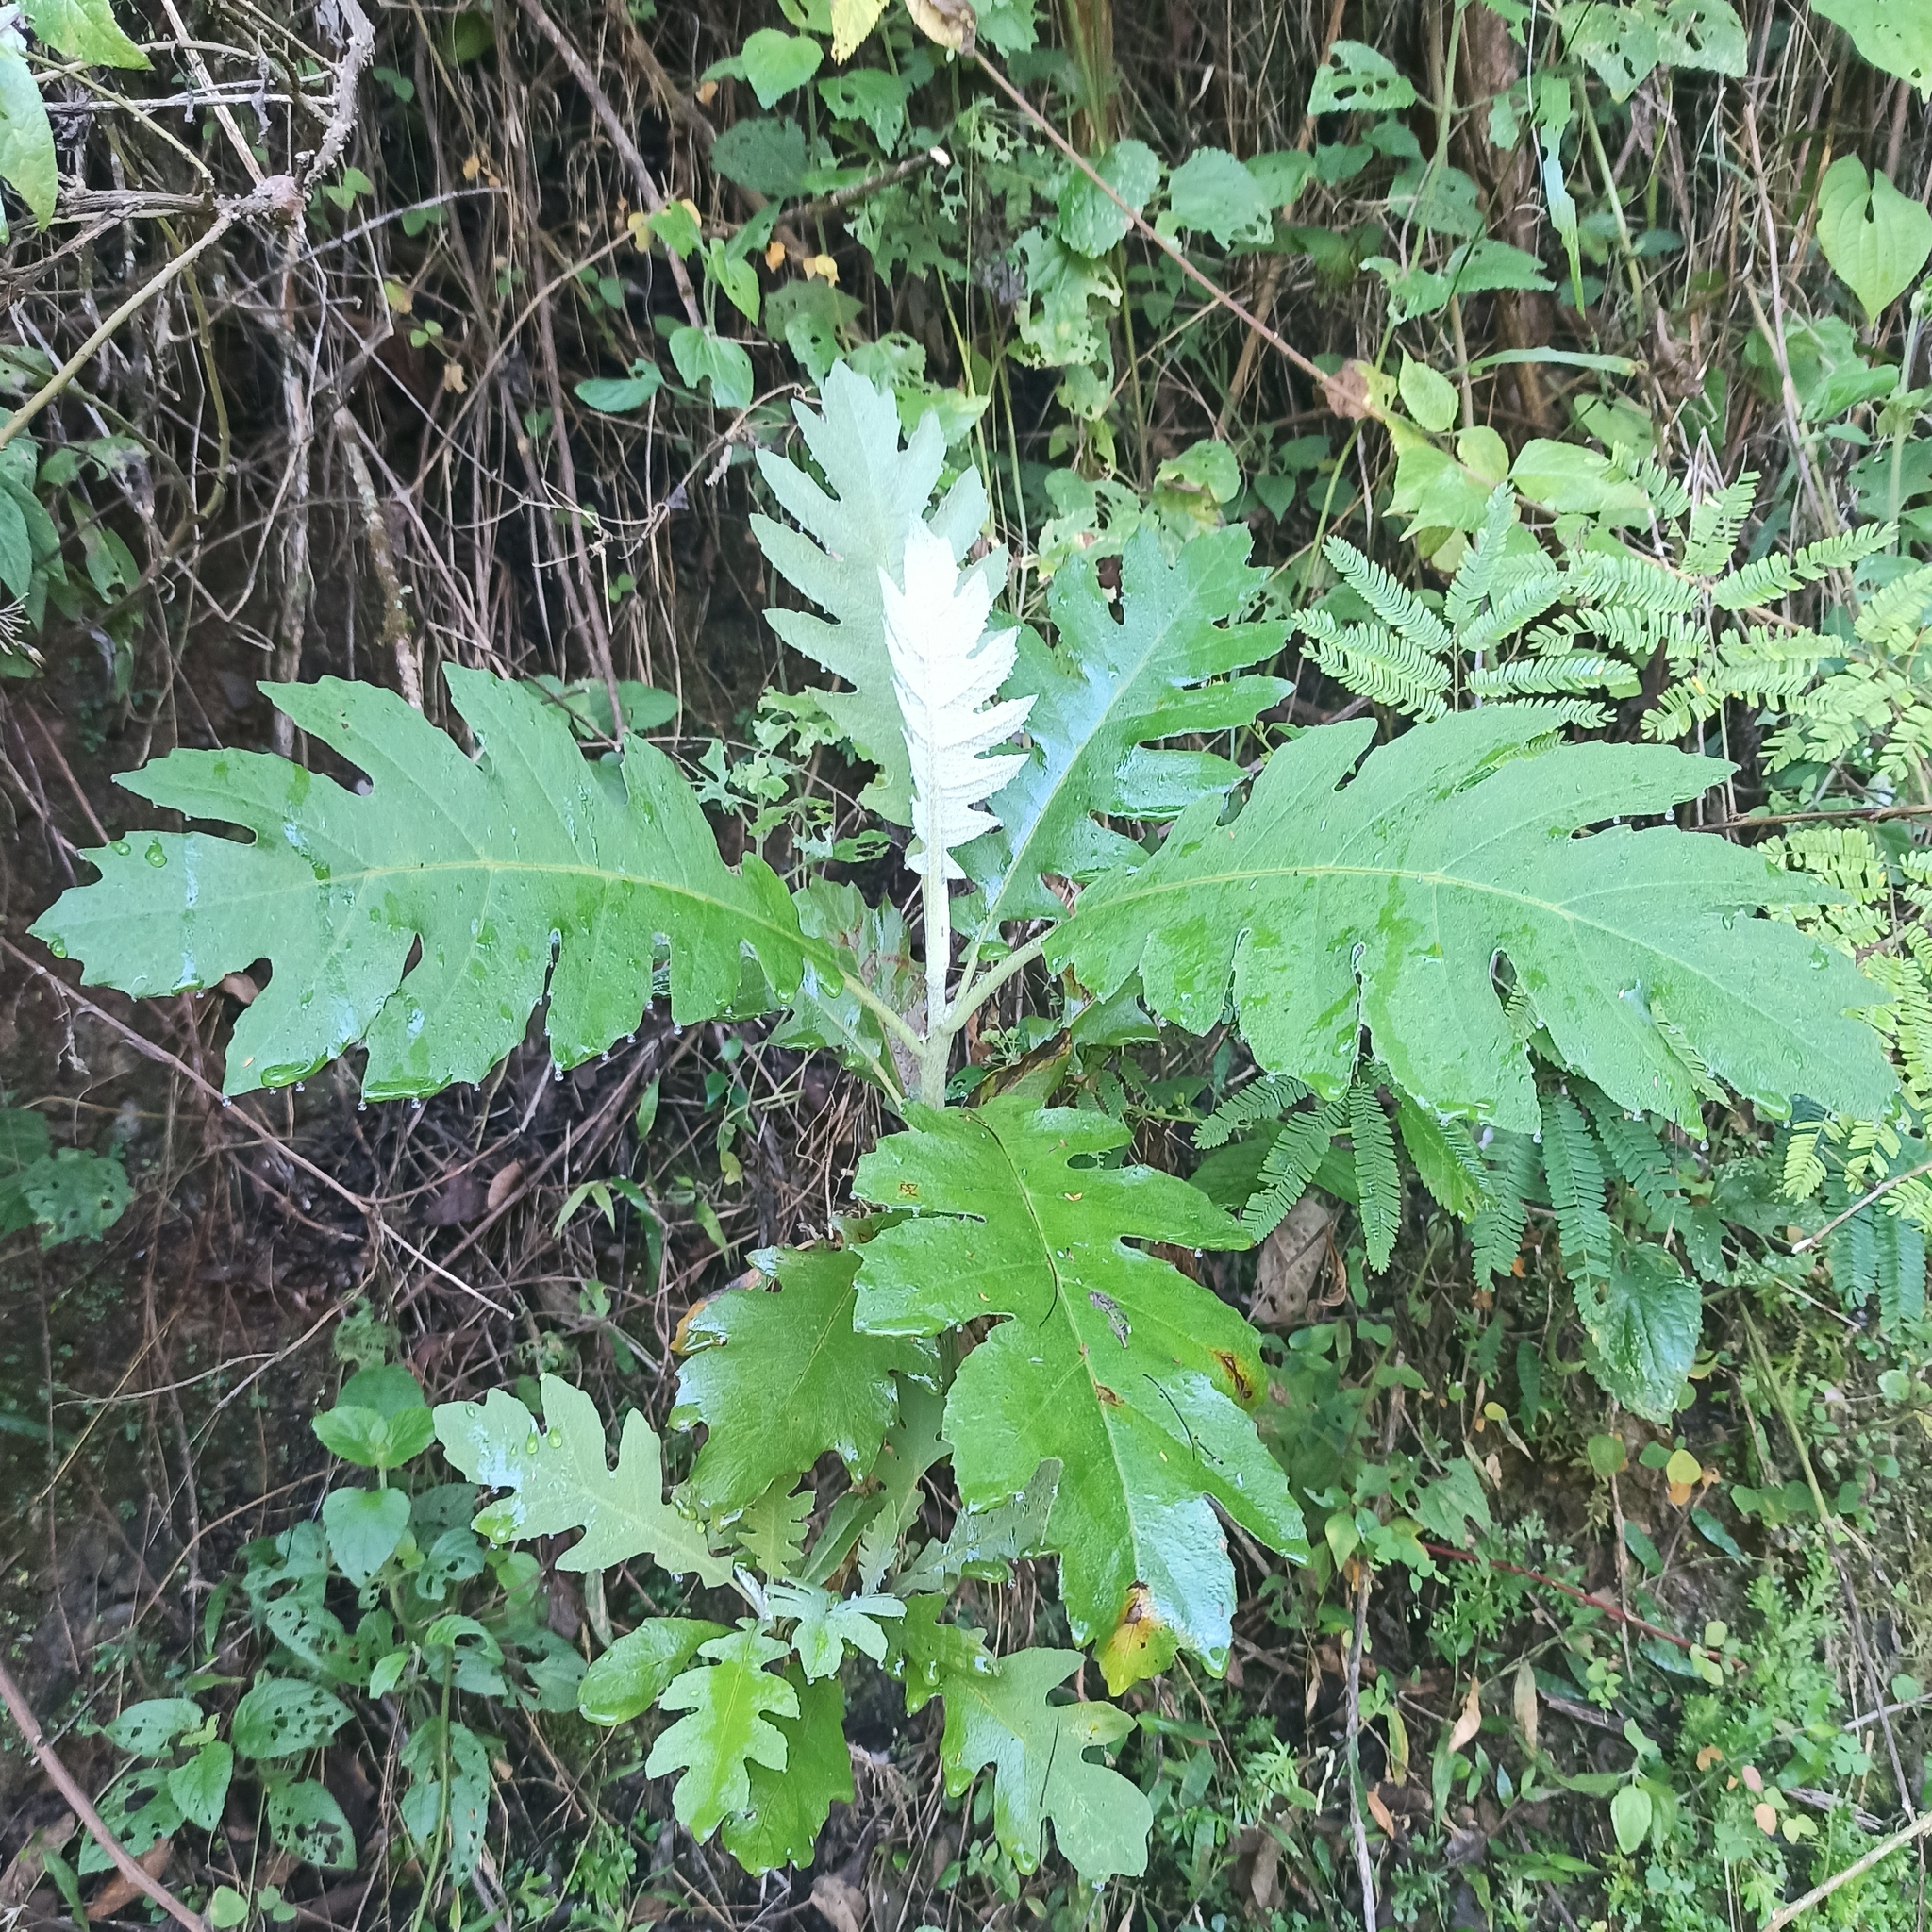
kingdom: Plantae
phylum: Tracheophyta
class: Magnoliopsida
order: Ranunculales
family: Papaveraceae
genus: Bocconia
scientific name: Bocconia frutescens
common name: Tree poppy
